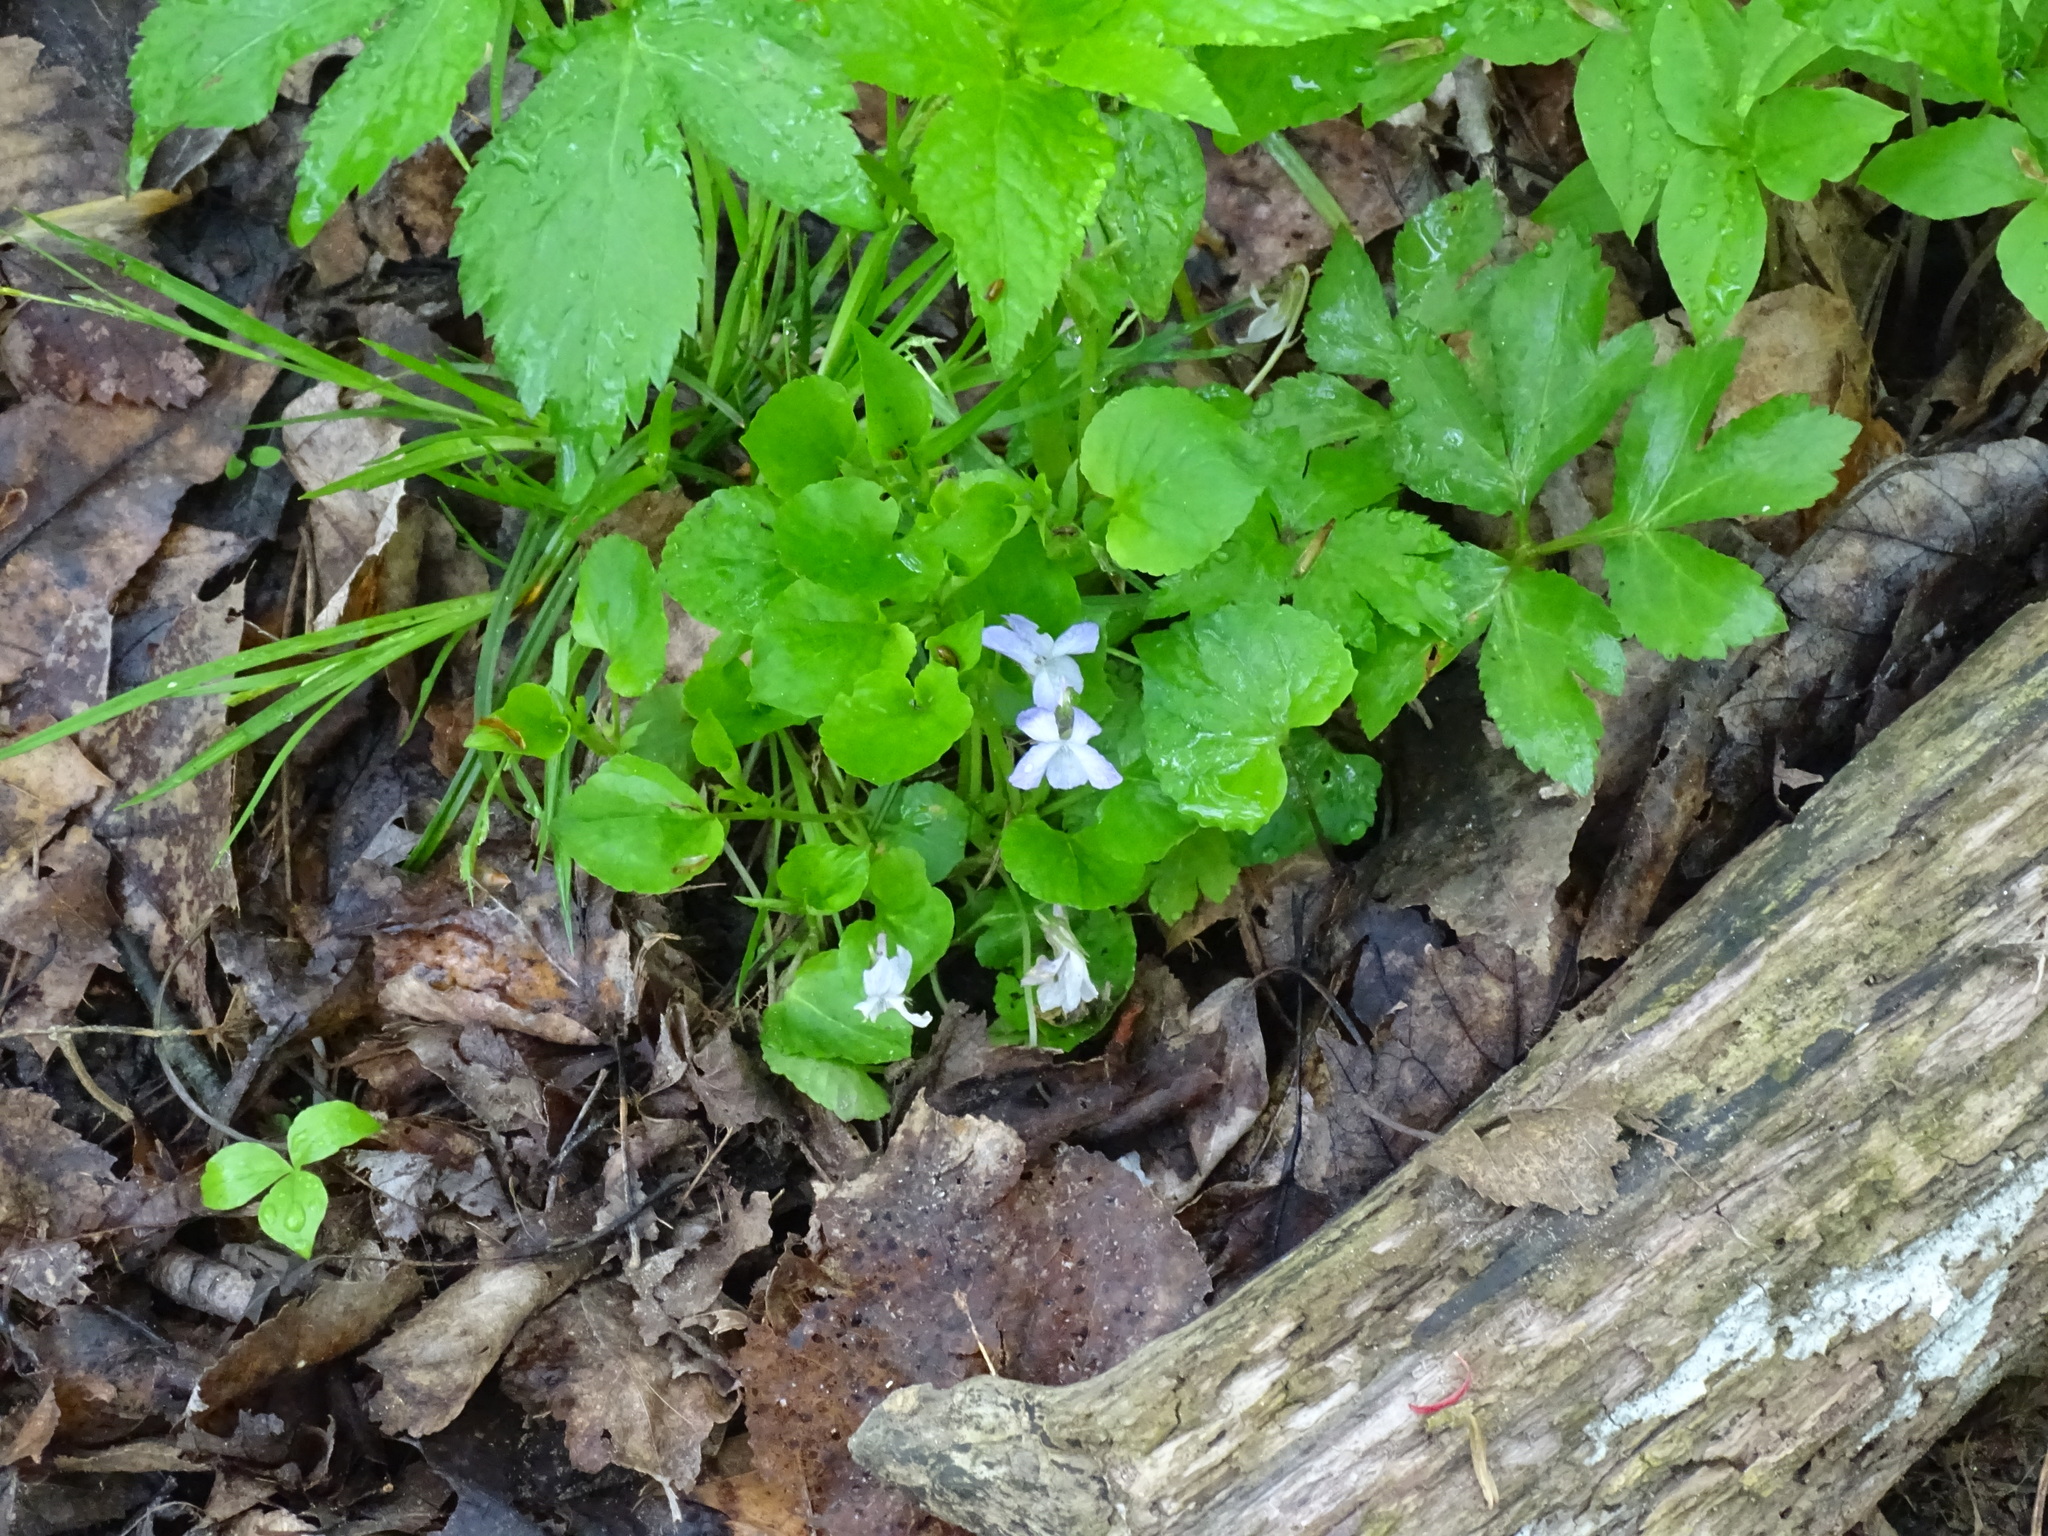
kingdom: Plantae
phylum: Tracheophyta
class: Magnoliopsida
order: Malpighiales
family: Violaceae
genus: Viola
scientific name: Viola labradorica
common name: Labrador violet
